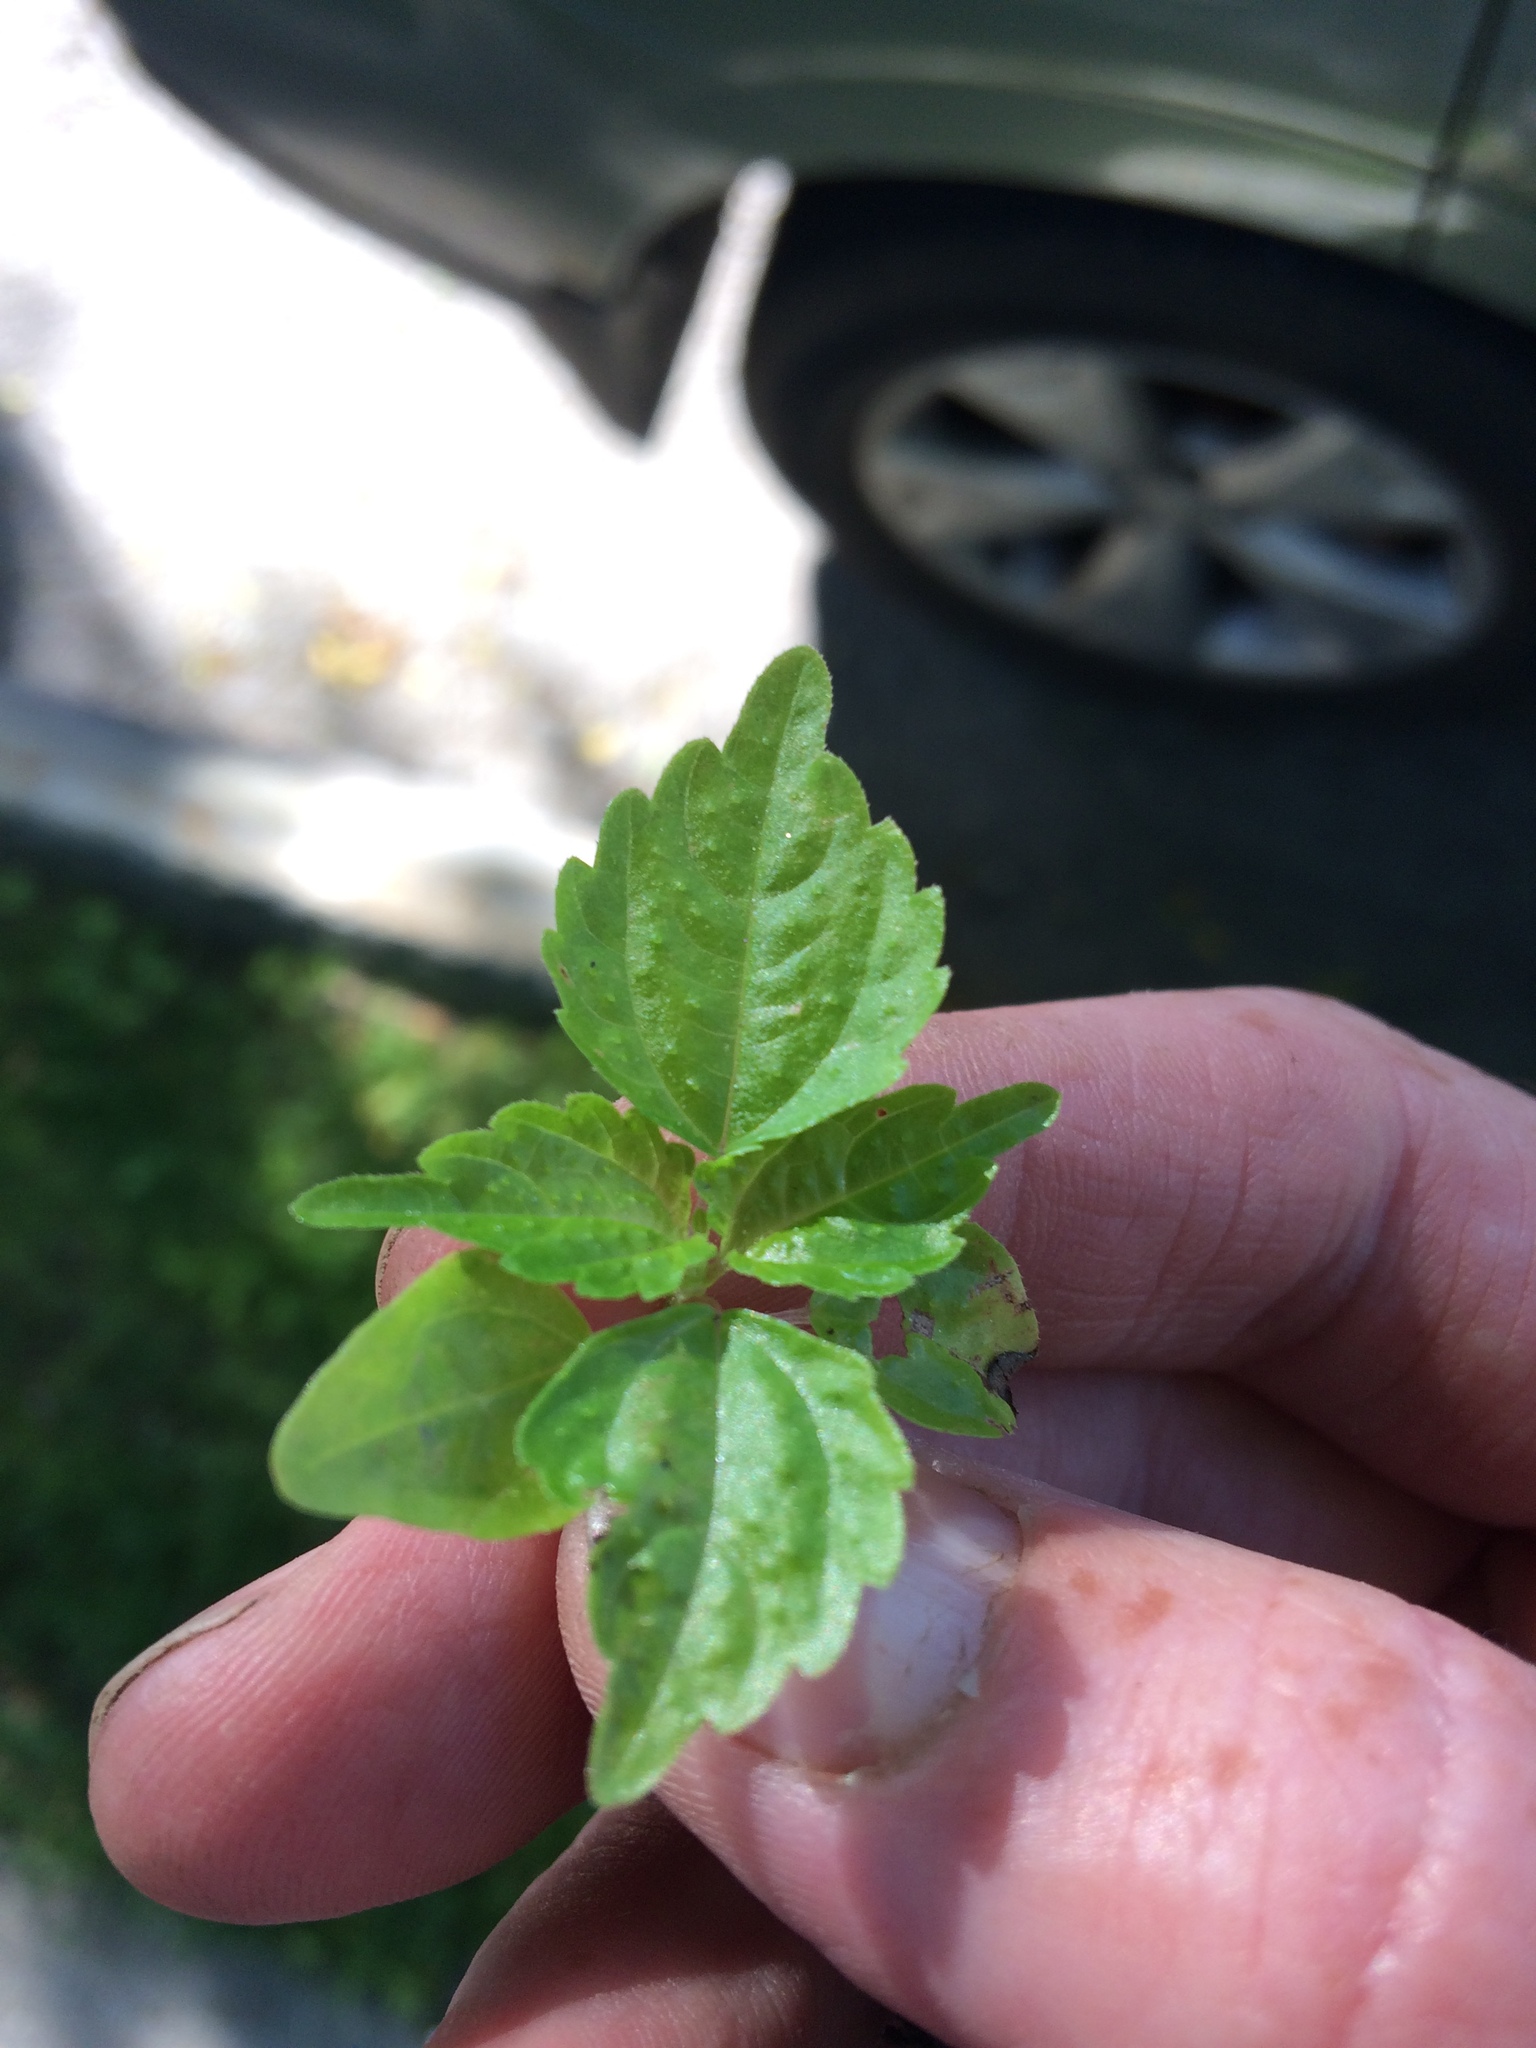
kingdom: Plantae
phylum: Tracheophyta
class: Magnoliopsida
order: Rosales
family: Urticaceae
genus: Pilea
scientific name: Pilea pumila
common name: Clearweed
